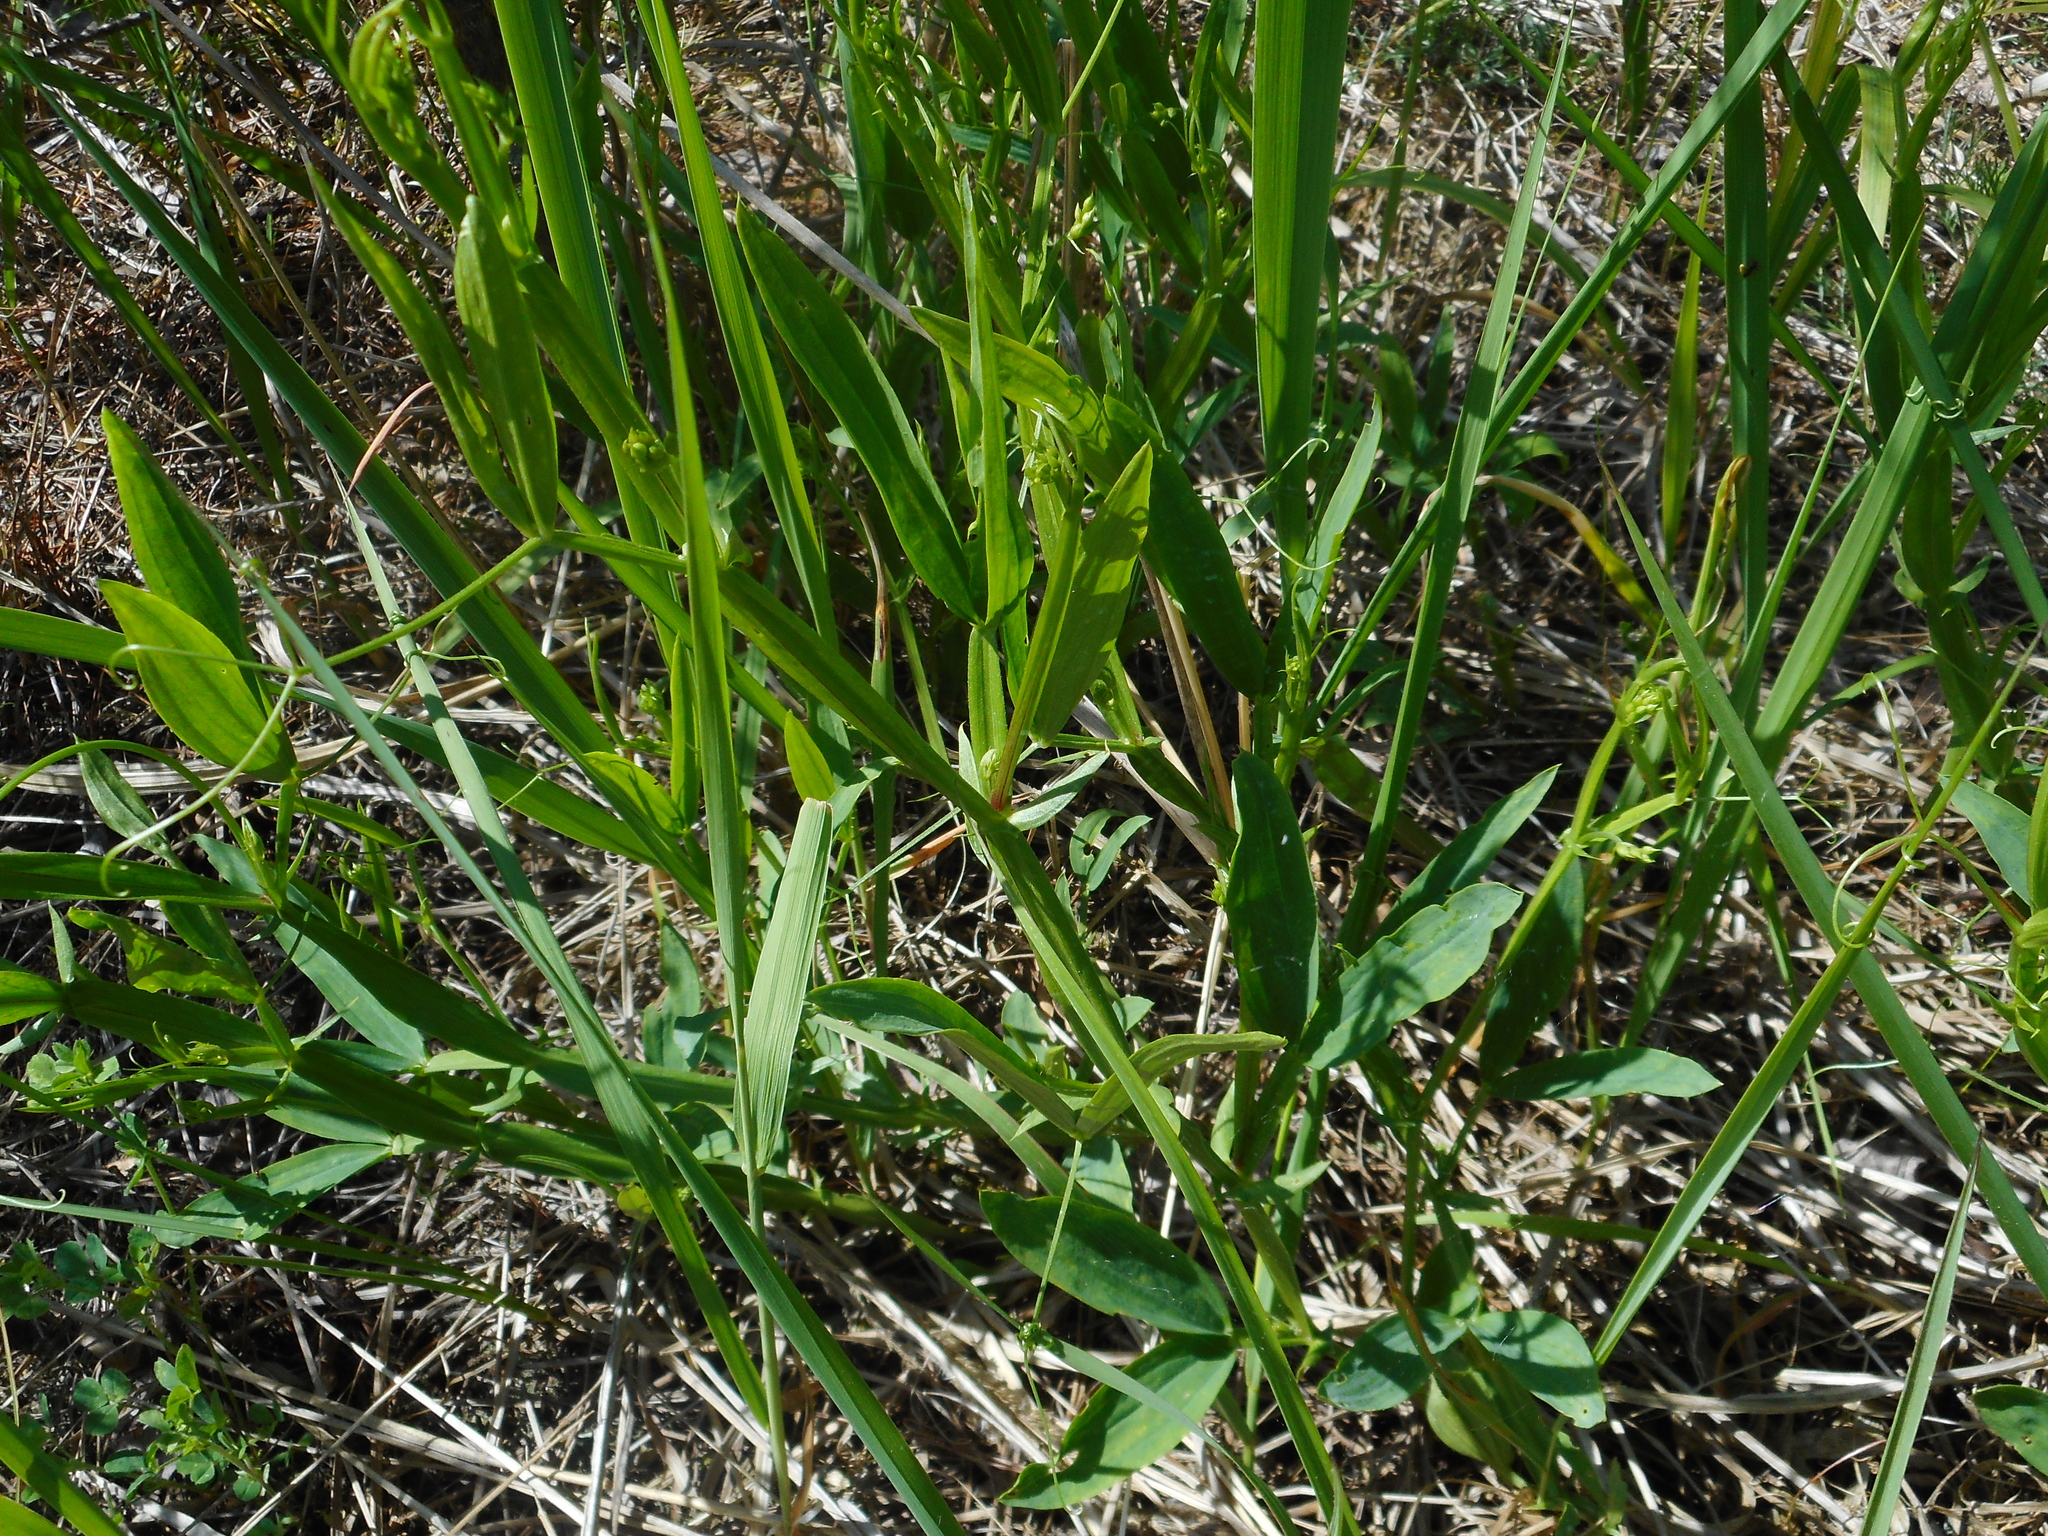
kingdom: Plantae
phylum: Tracheophyta
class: Magnoliopsida
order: Fabales
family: Fabaceae
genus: Lathyrus
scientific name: Lathyrus sylvestris
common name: Flat pea
